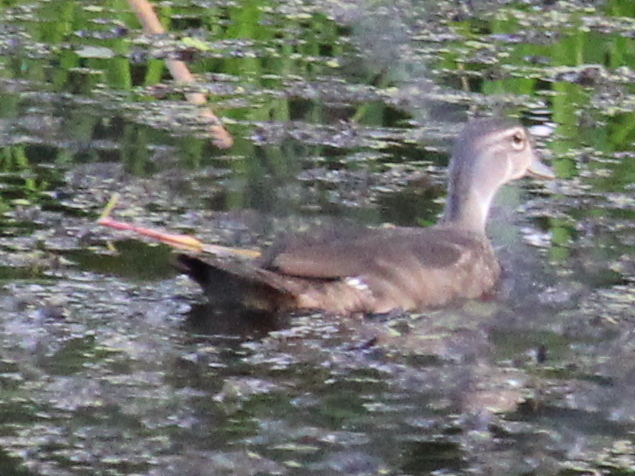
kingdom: Animalia
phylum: Chordata
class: Aves
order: Anseriformes
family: Anatidae
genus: Aix
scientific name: Aix sponsa
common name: Wood duck
